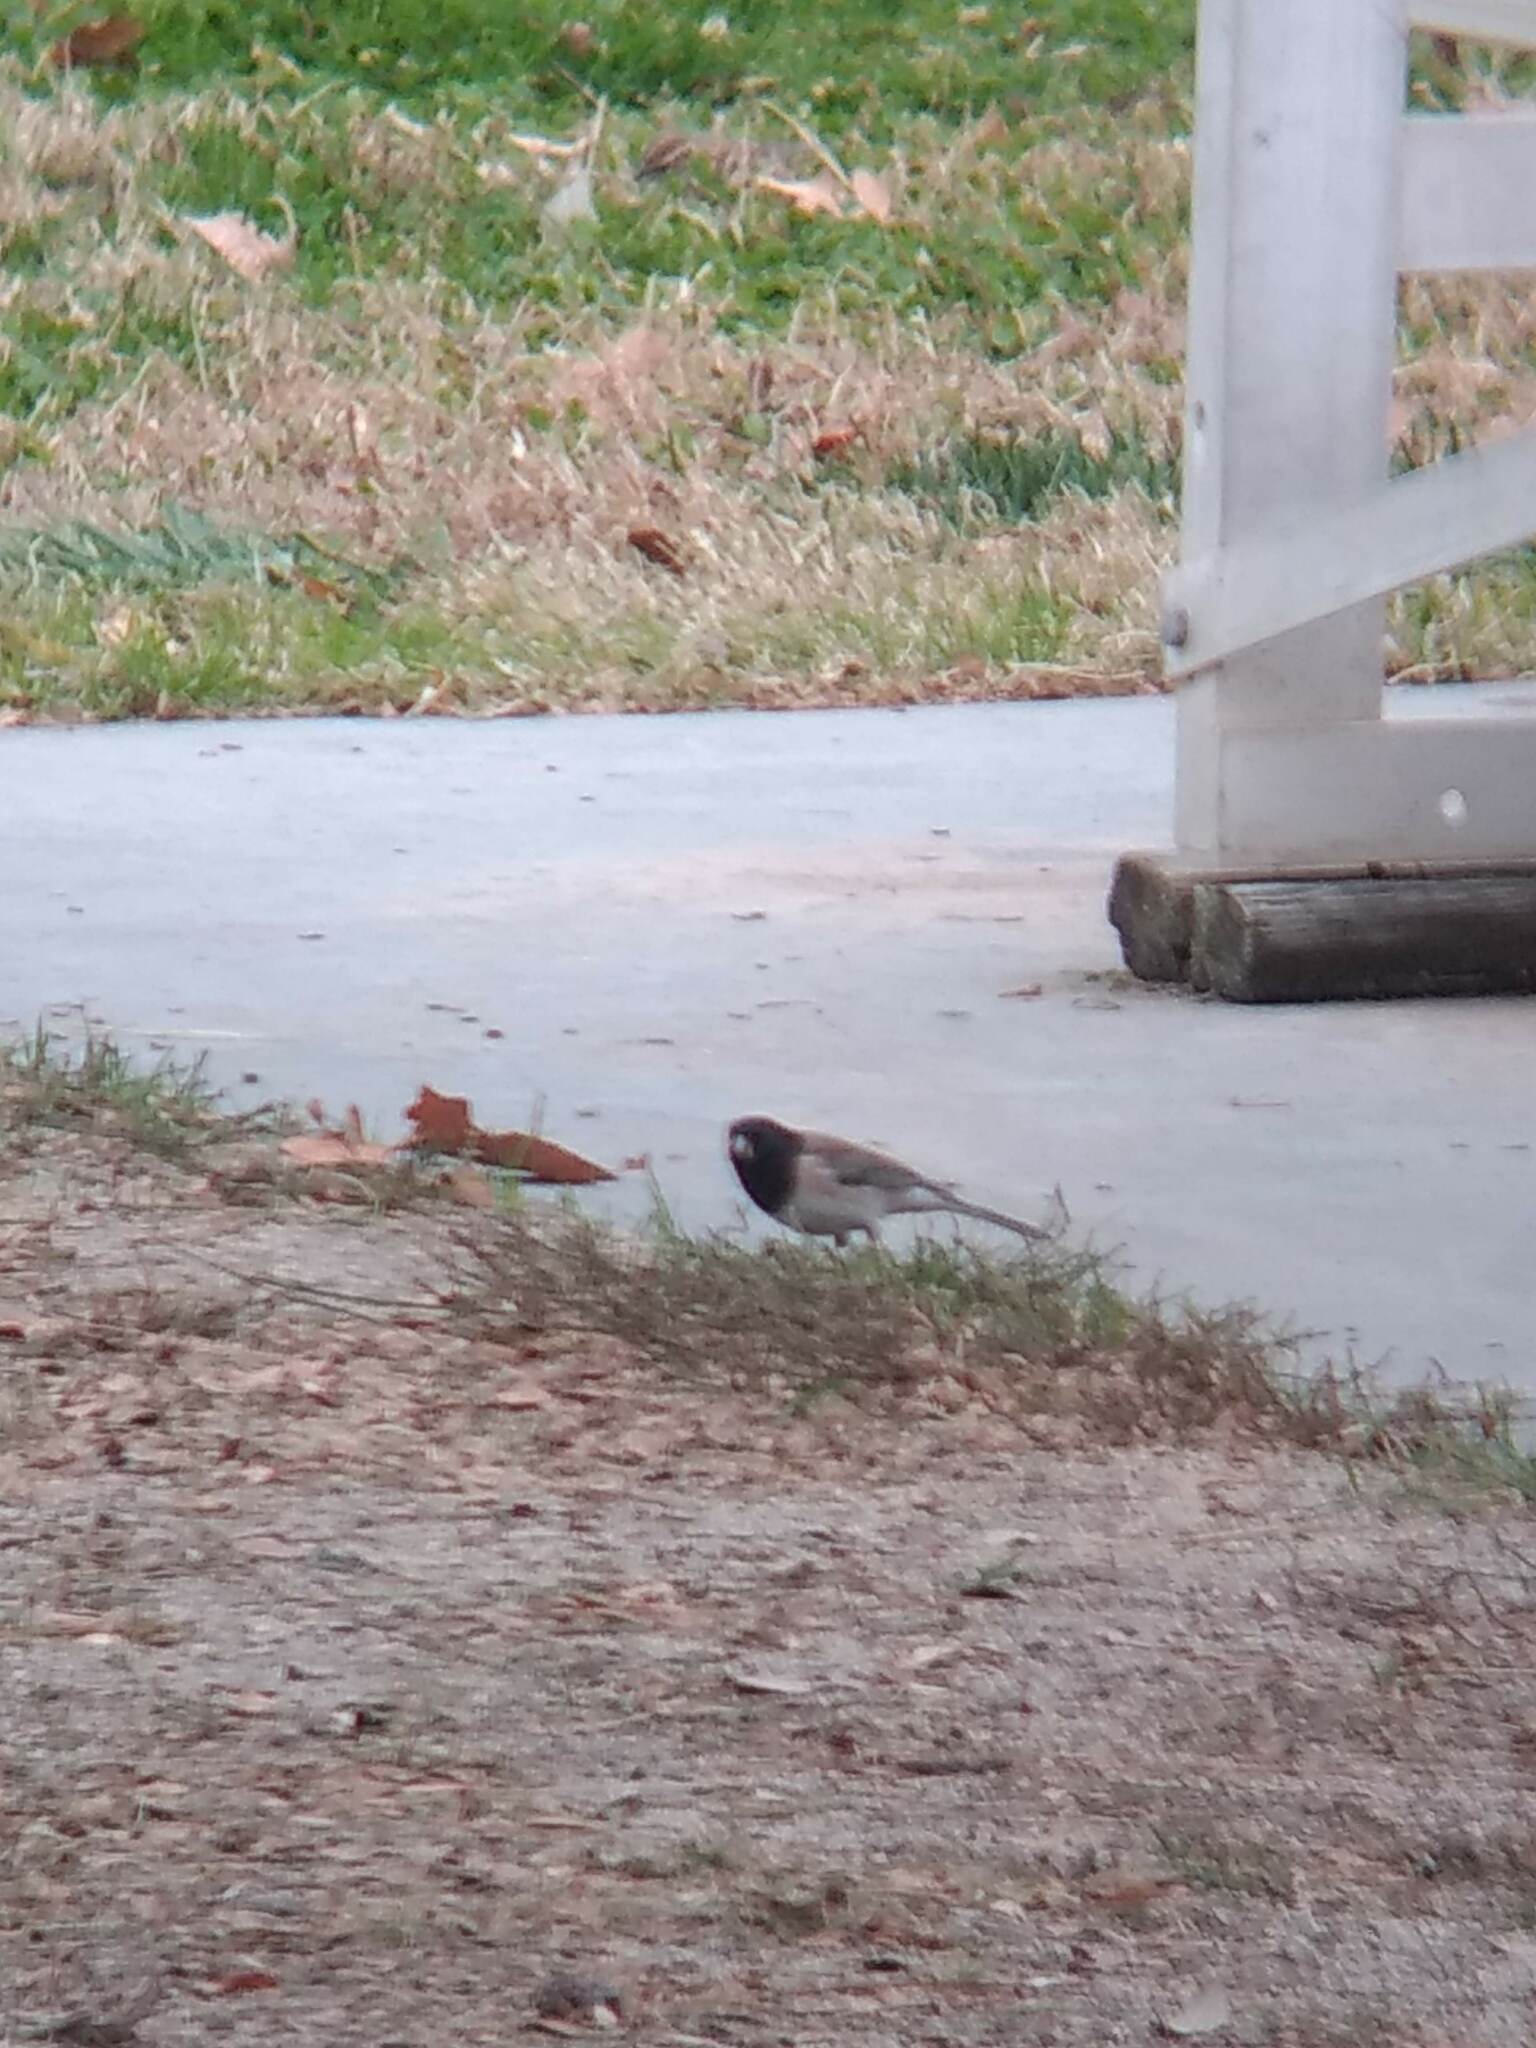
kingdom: Animalia
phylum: Chordata
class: Aves
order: Passeriformes
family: Passerellidae
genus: Junco
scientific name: Junco hyemalis
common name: Dark-eyed junco
